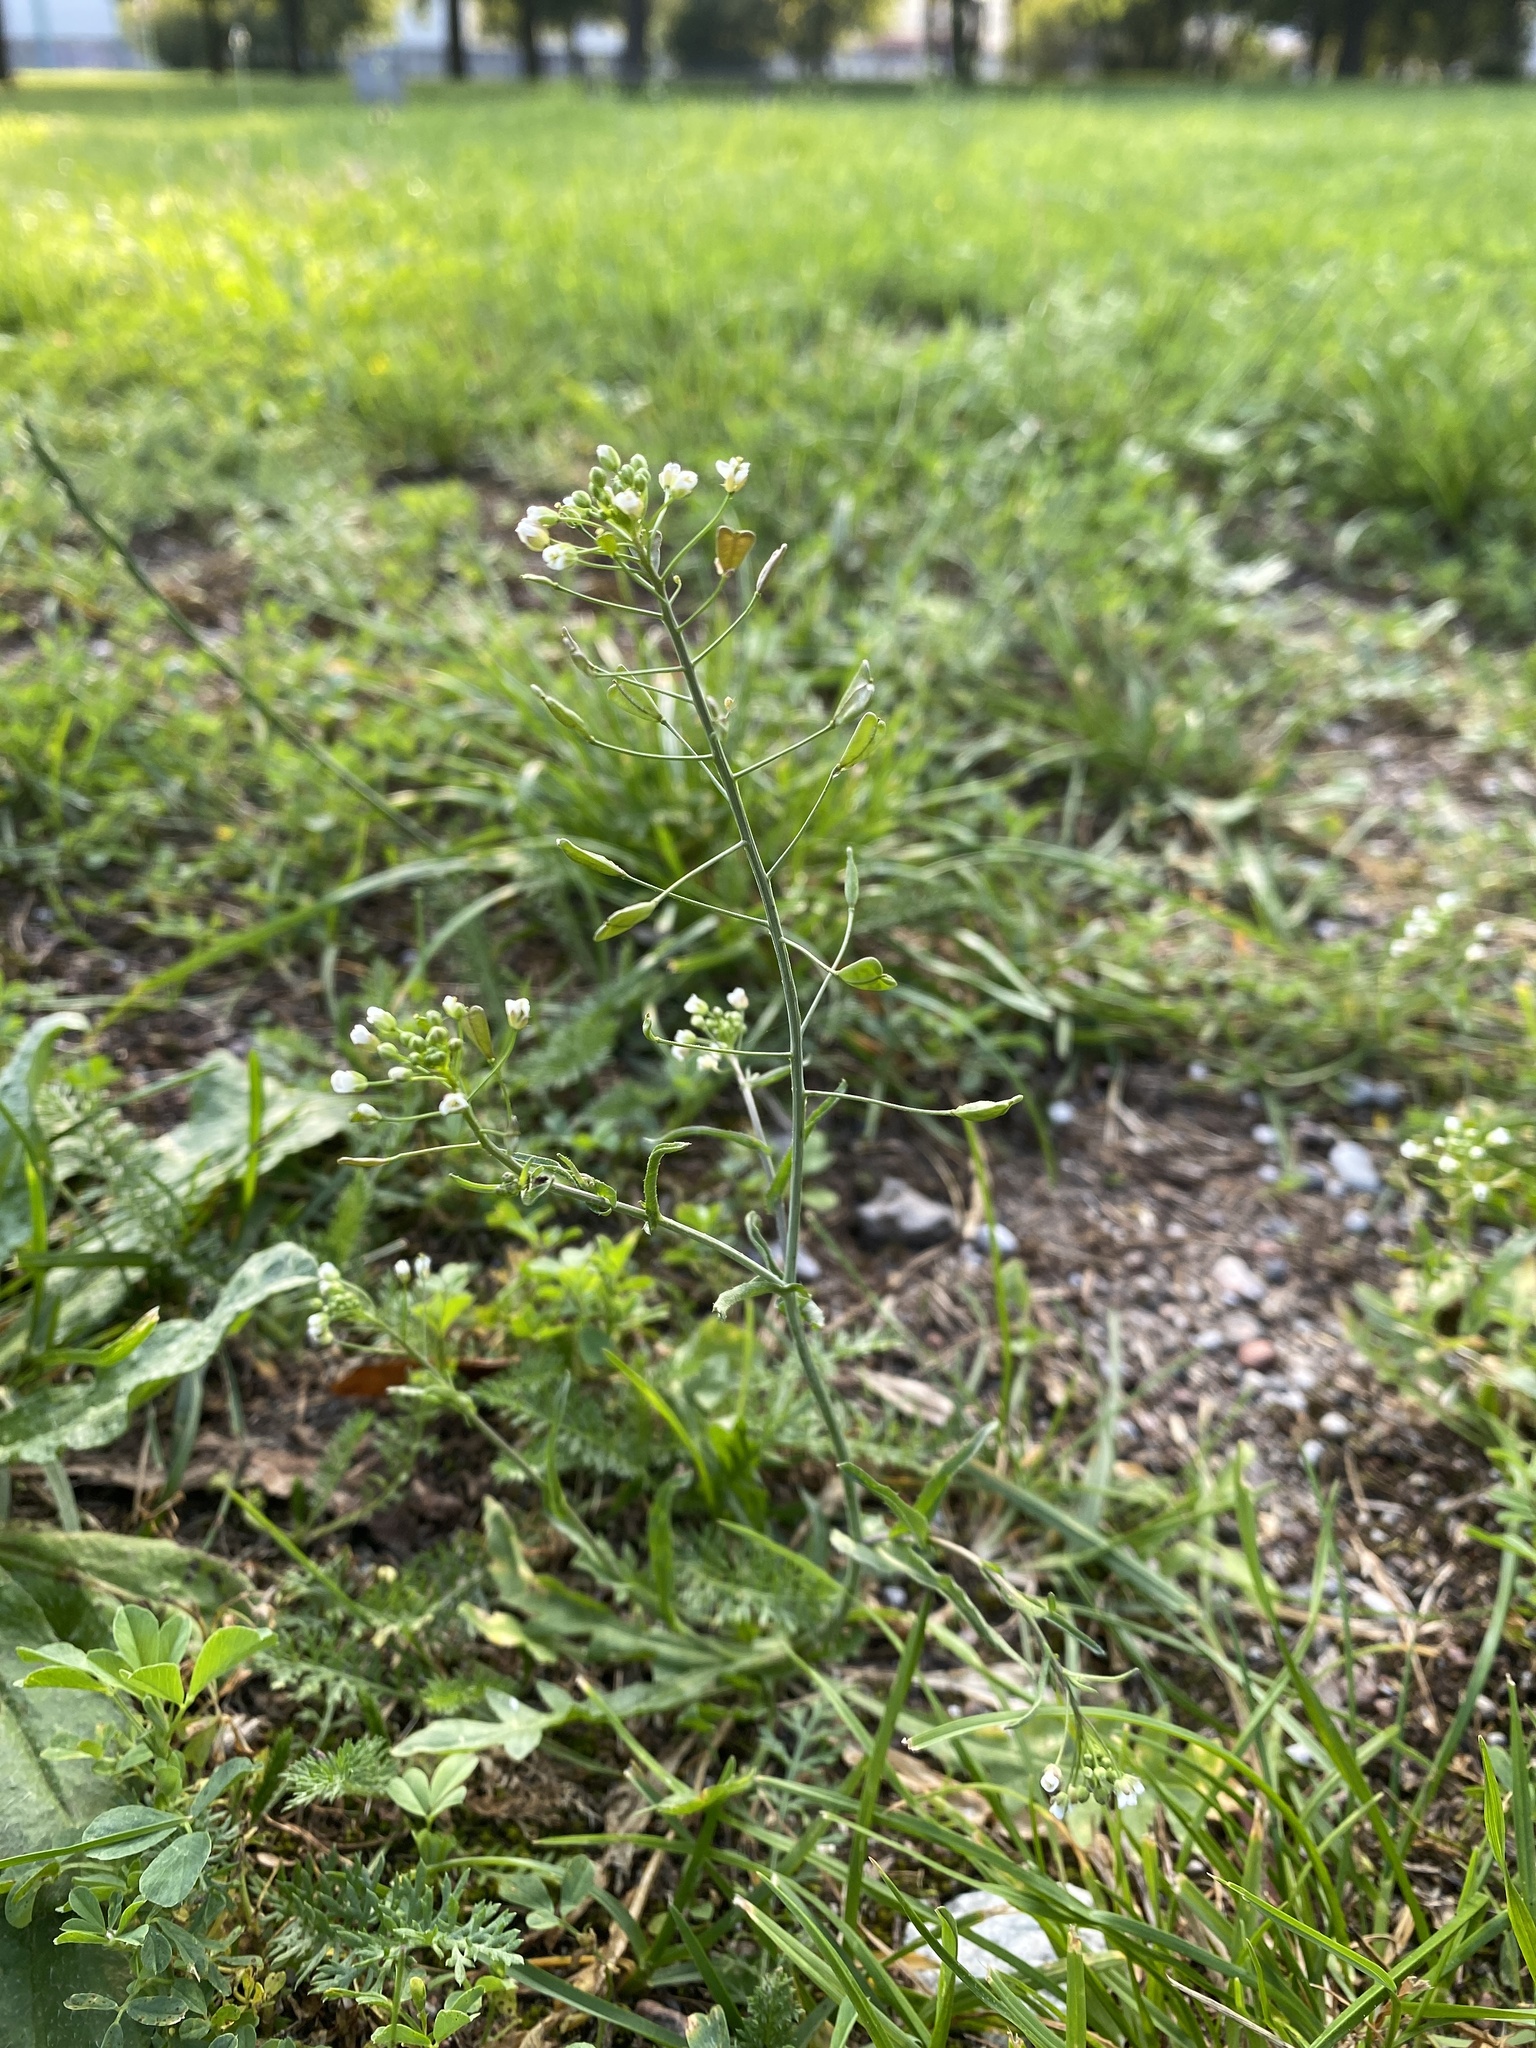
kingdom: Plantae
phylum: Tracheophyta
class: Magnoliopsida
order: Brassicales
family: Brassicaceae
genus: Capsella
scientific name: Capsella bursa-pastoris
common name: Shepherd's purse
